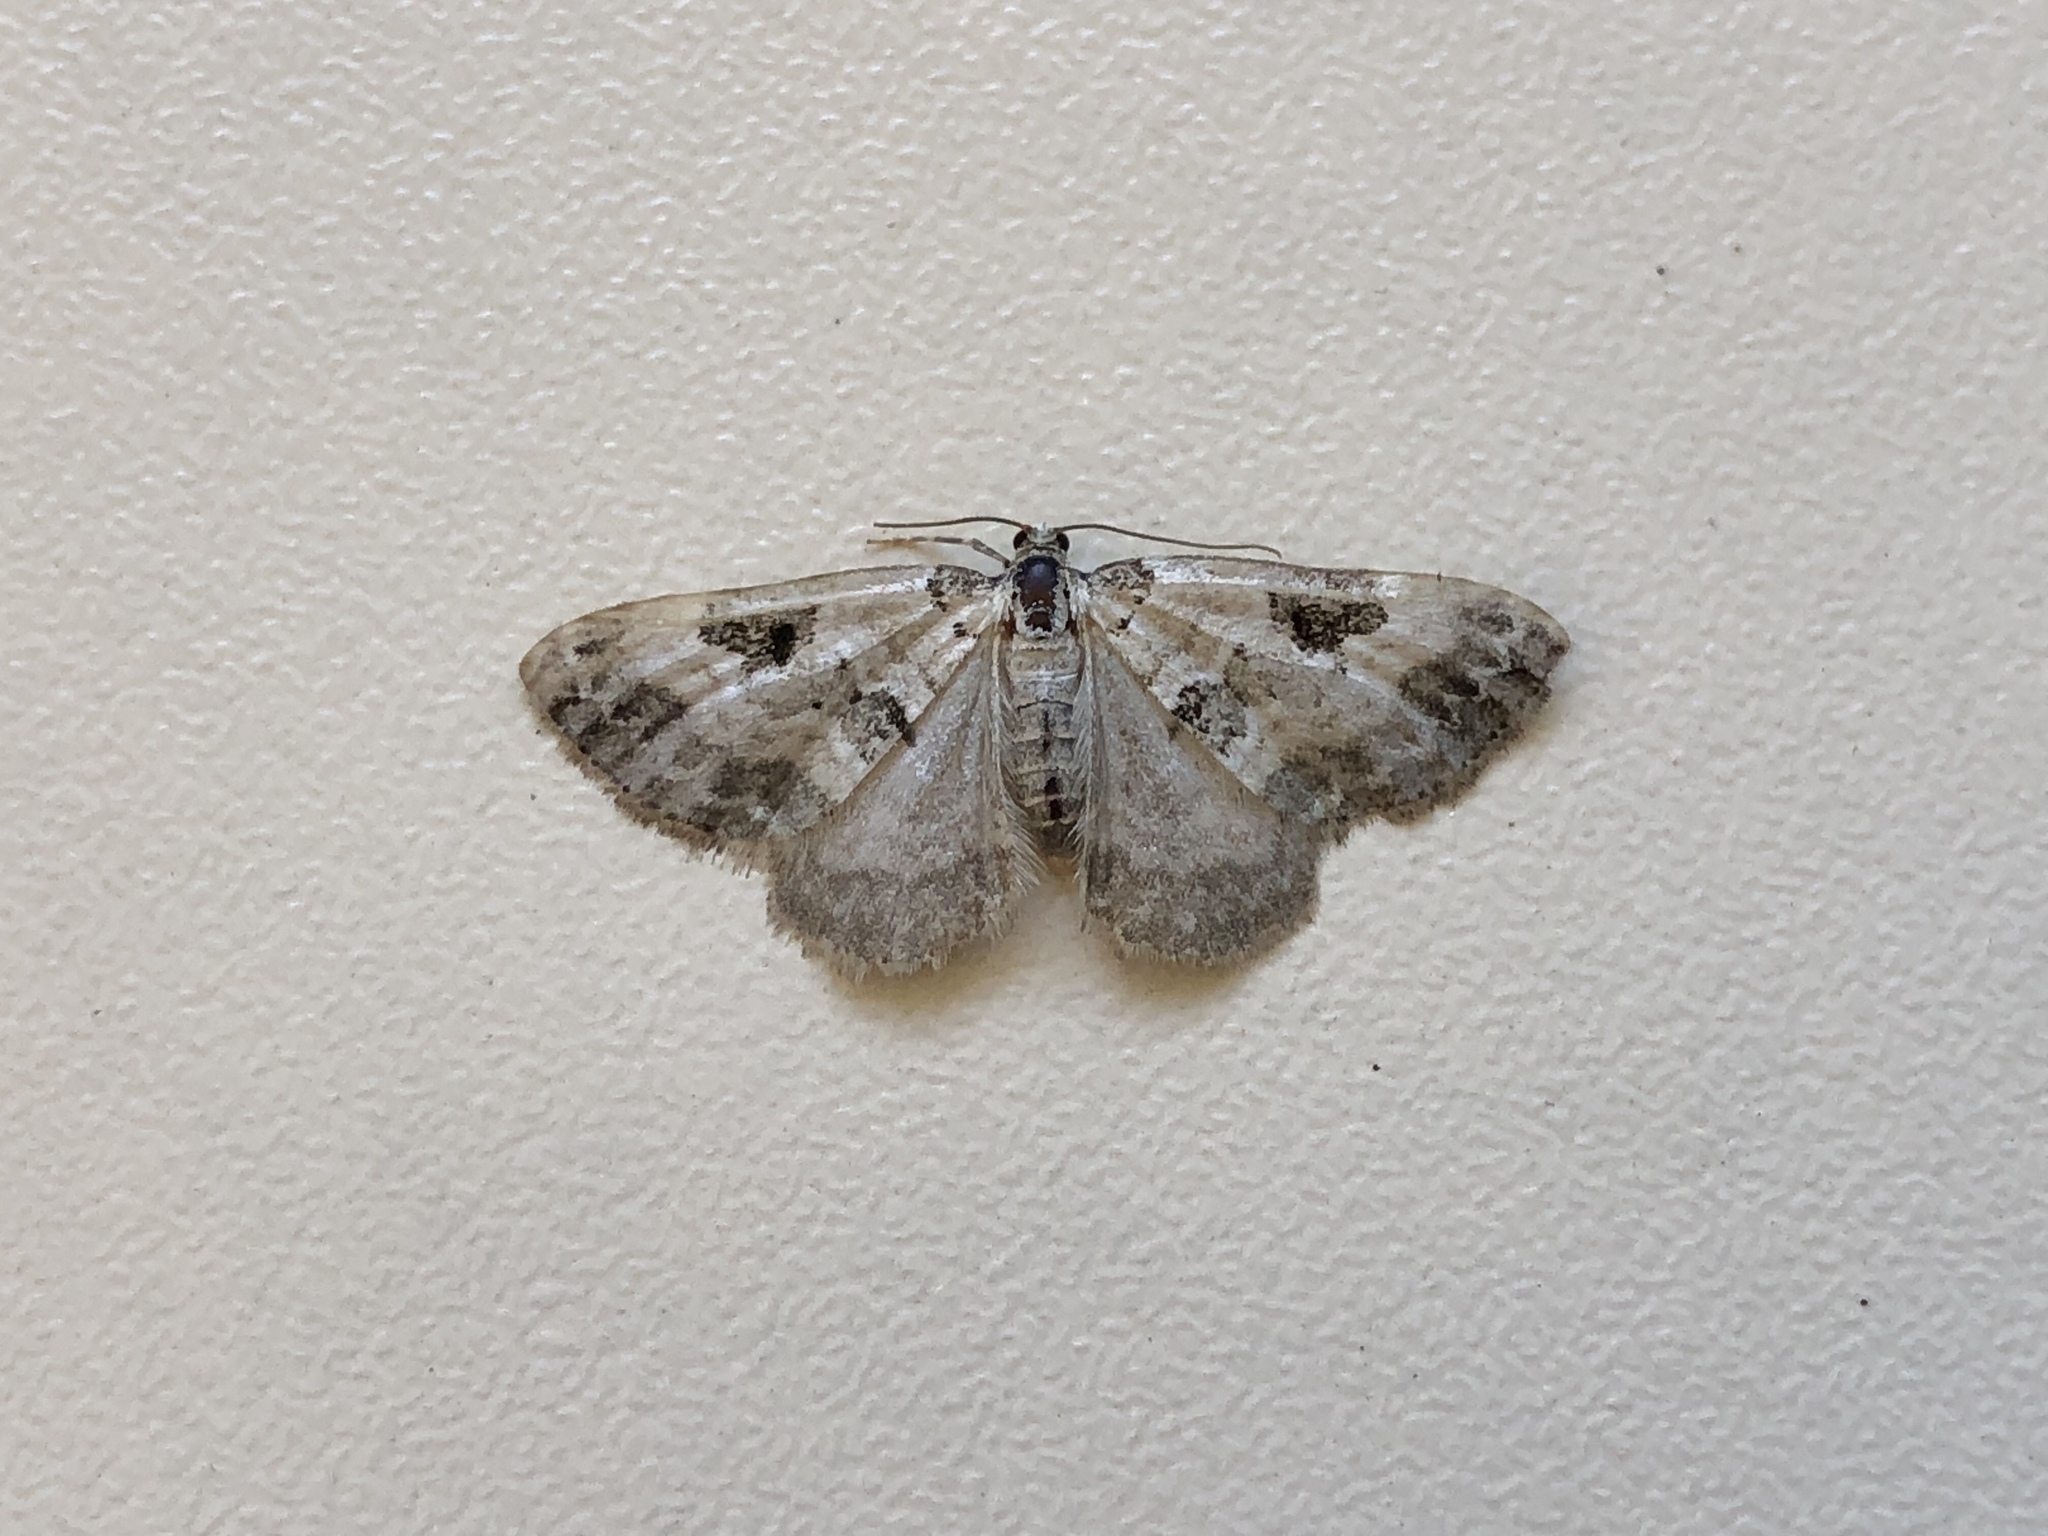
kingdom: Animalia
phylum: Arthropoda
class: Insecta
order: Lepidoptera
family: Geometridae
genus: Perizoma
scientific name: Perizoma blandiata
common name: Pretty pinion
